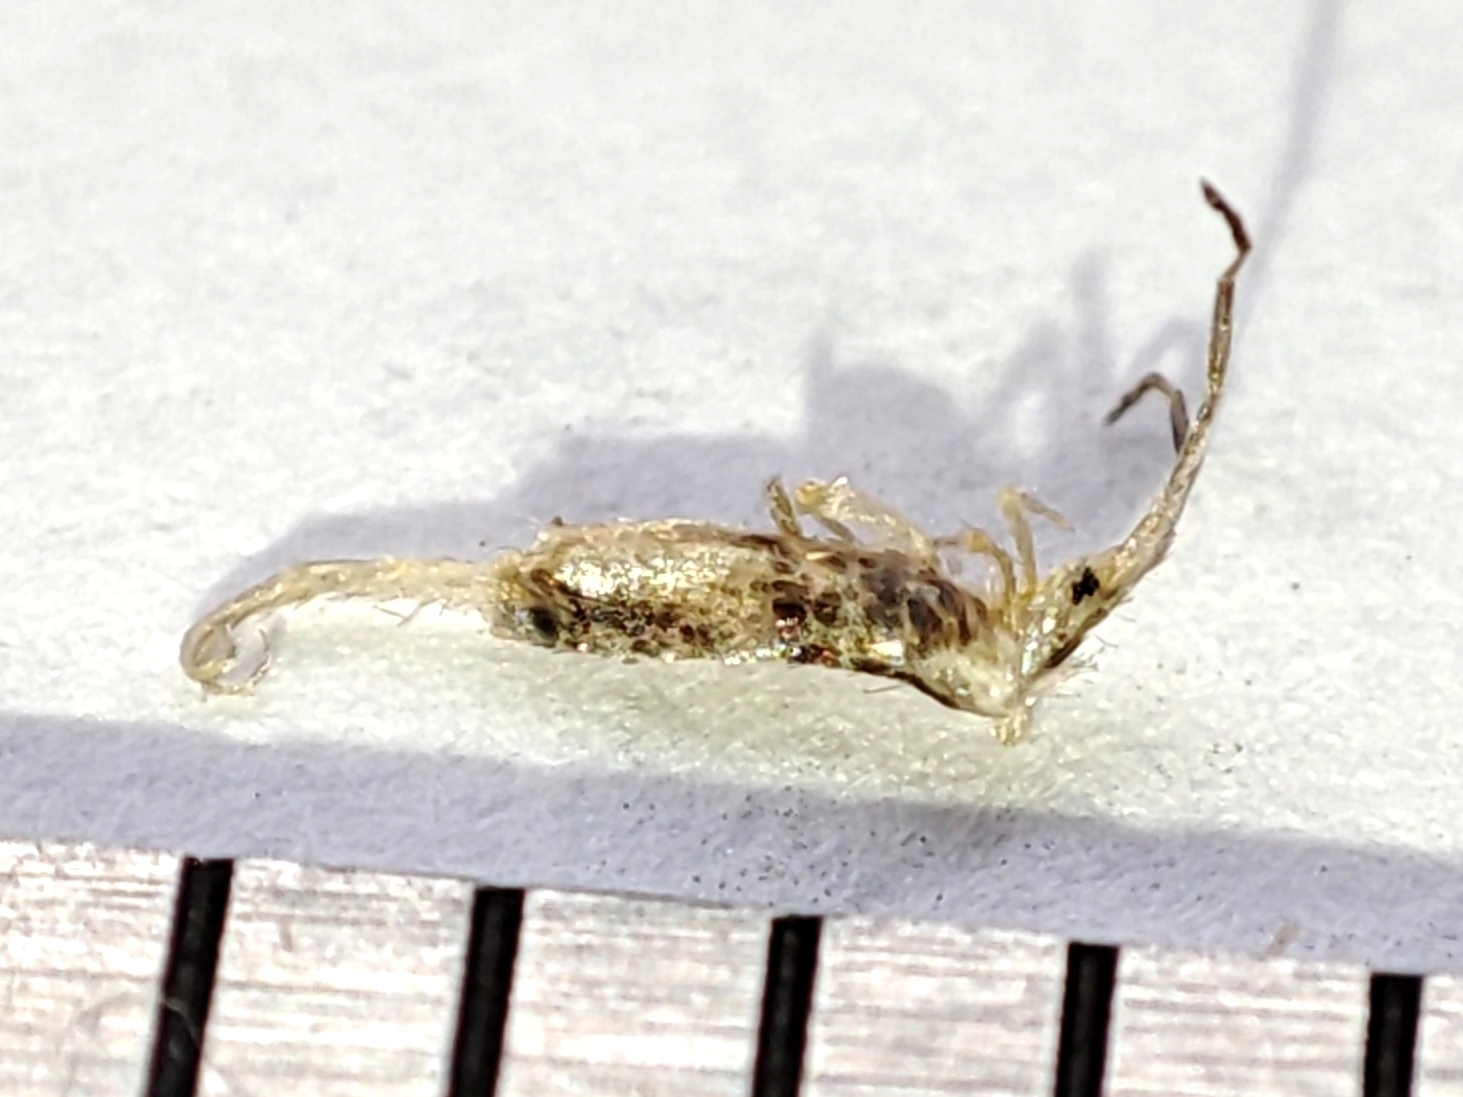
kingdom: Animalia
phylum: Arthropoda
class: Collembola
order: Entomobryomorpha
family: Entomobryidae
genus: Seira
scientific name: Seira musarum
